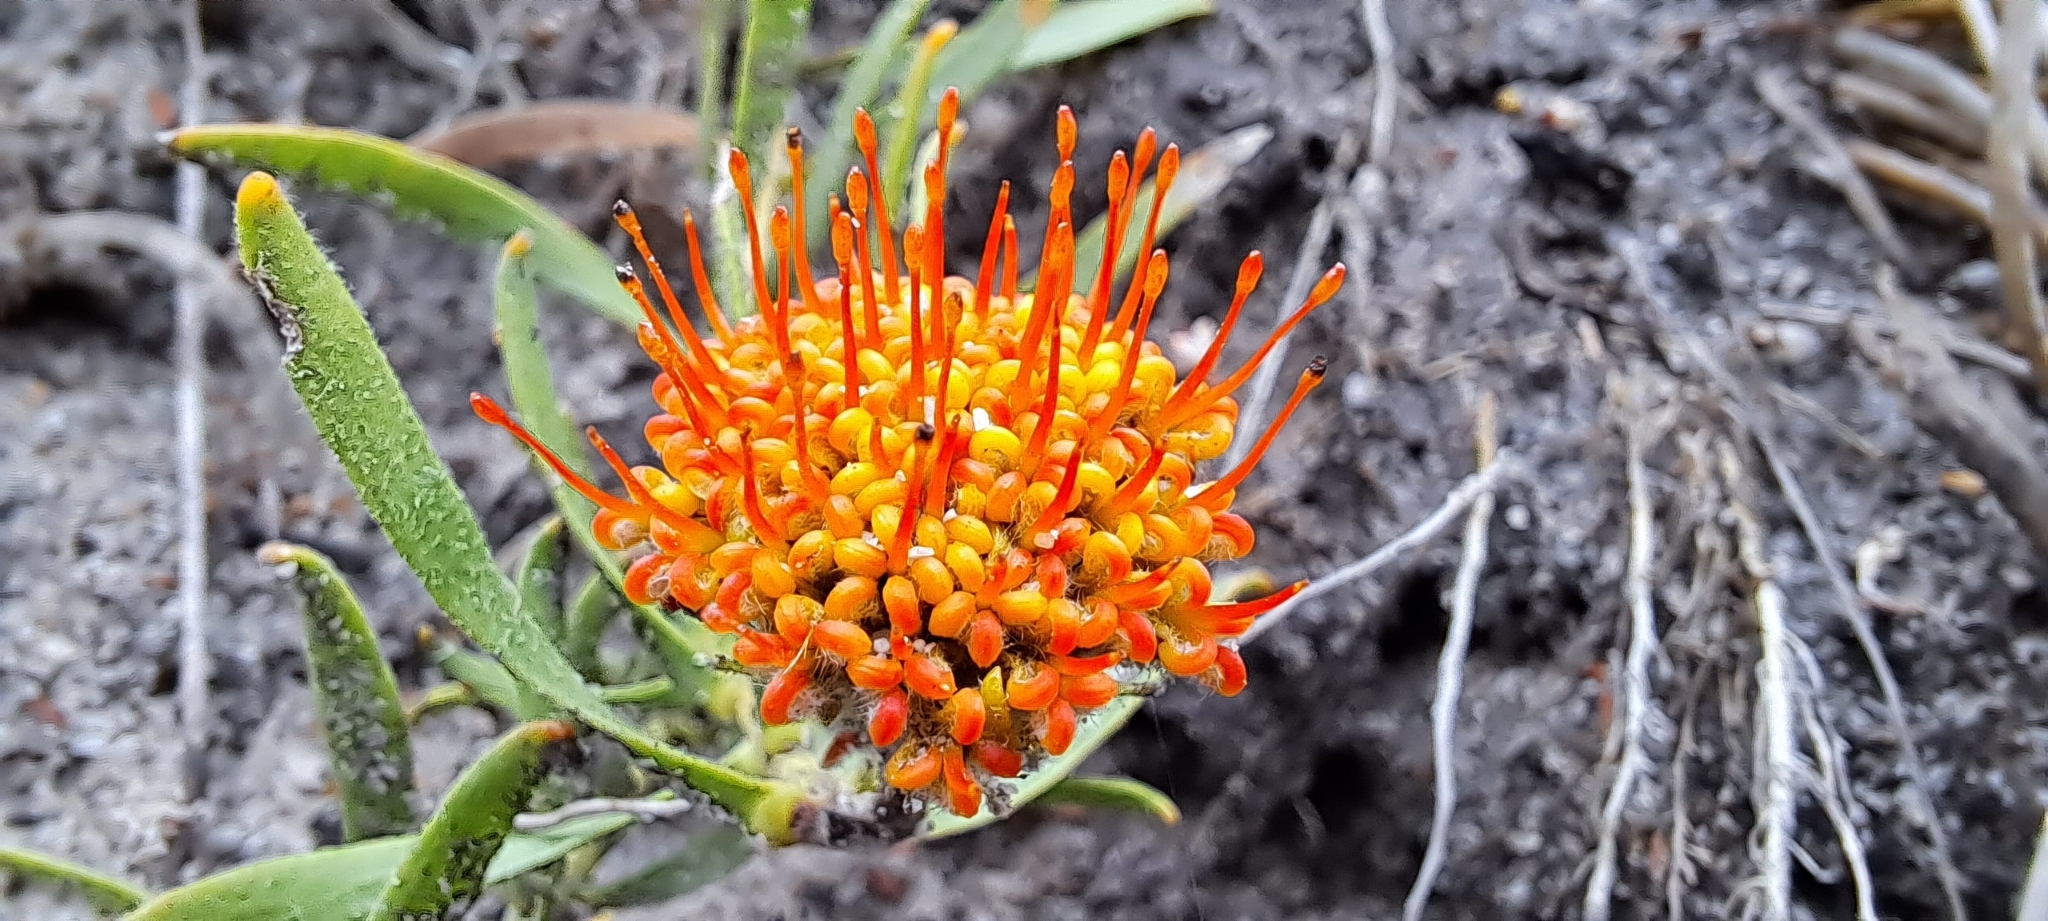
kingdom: Plantae
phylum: Tracheophyta
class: Magnoliopsida
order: Proteales
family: Proteaceae
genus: Leucospermum
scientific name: Leucospermum prostratum
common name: Yellow-trailing pincushion
